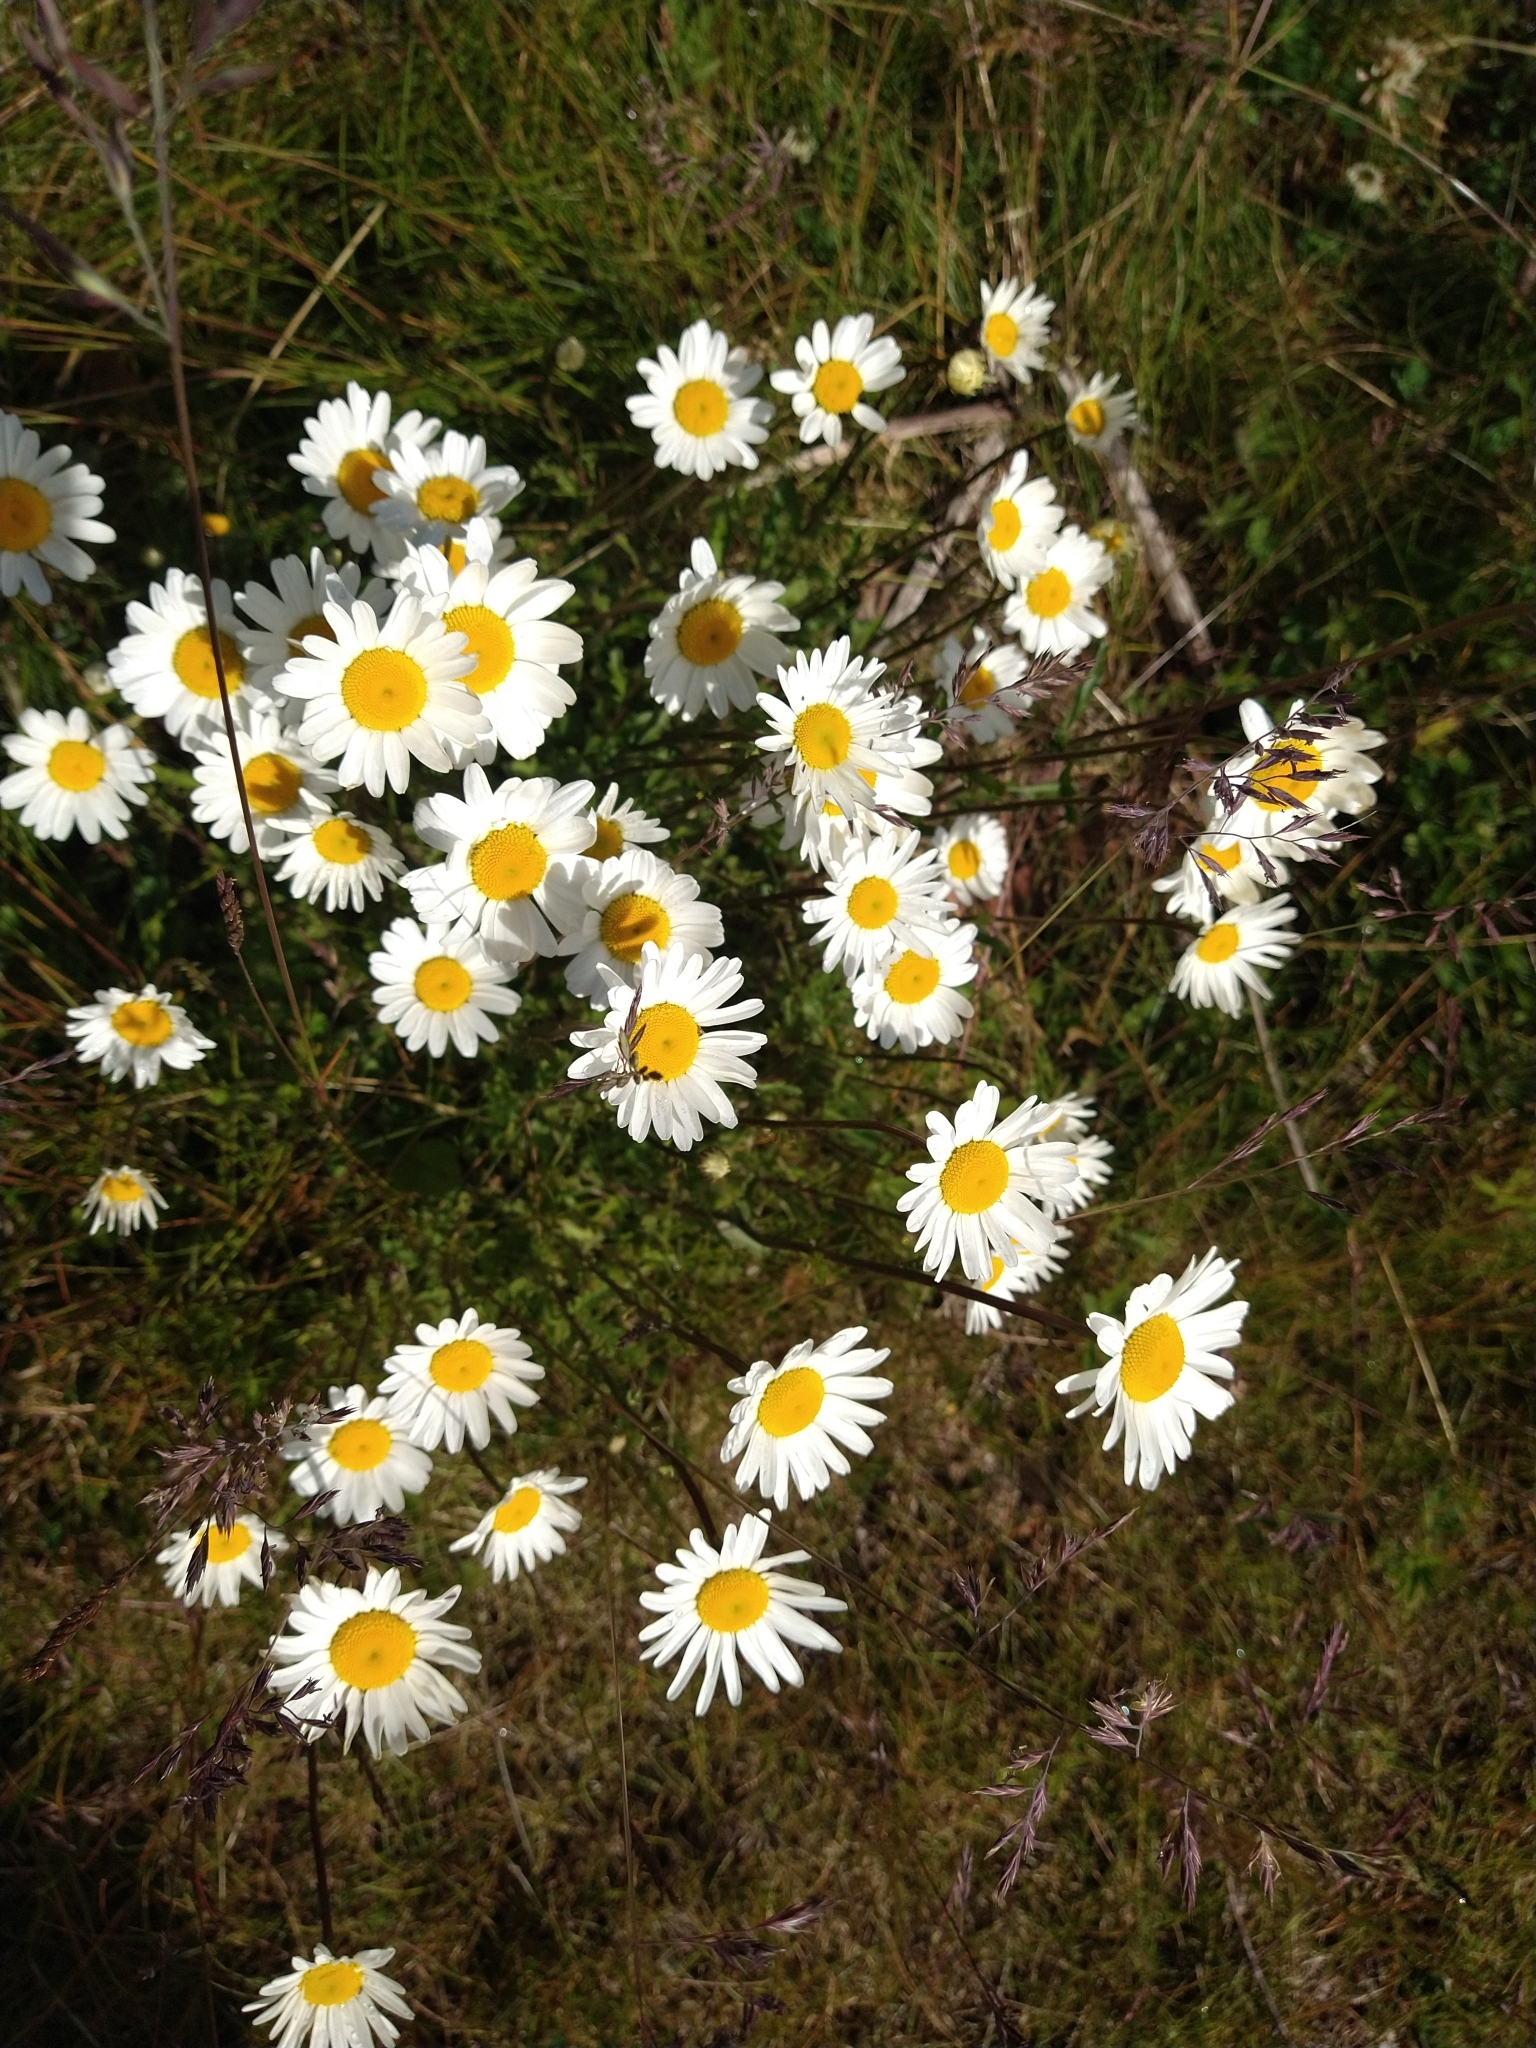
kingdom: Plantae
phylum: Tracheophyta
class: Magnoliopsida
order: Asterales
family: Asteraceae
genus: Leucanthemum
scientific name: Leucanthemum vulgare
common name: Oxeye daisy
